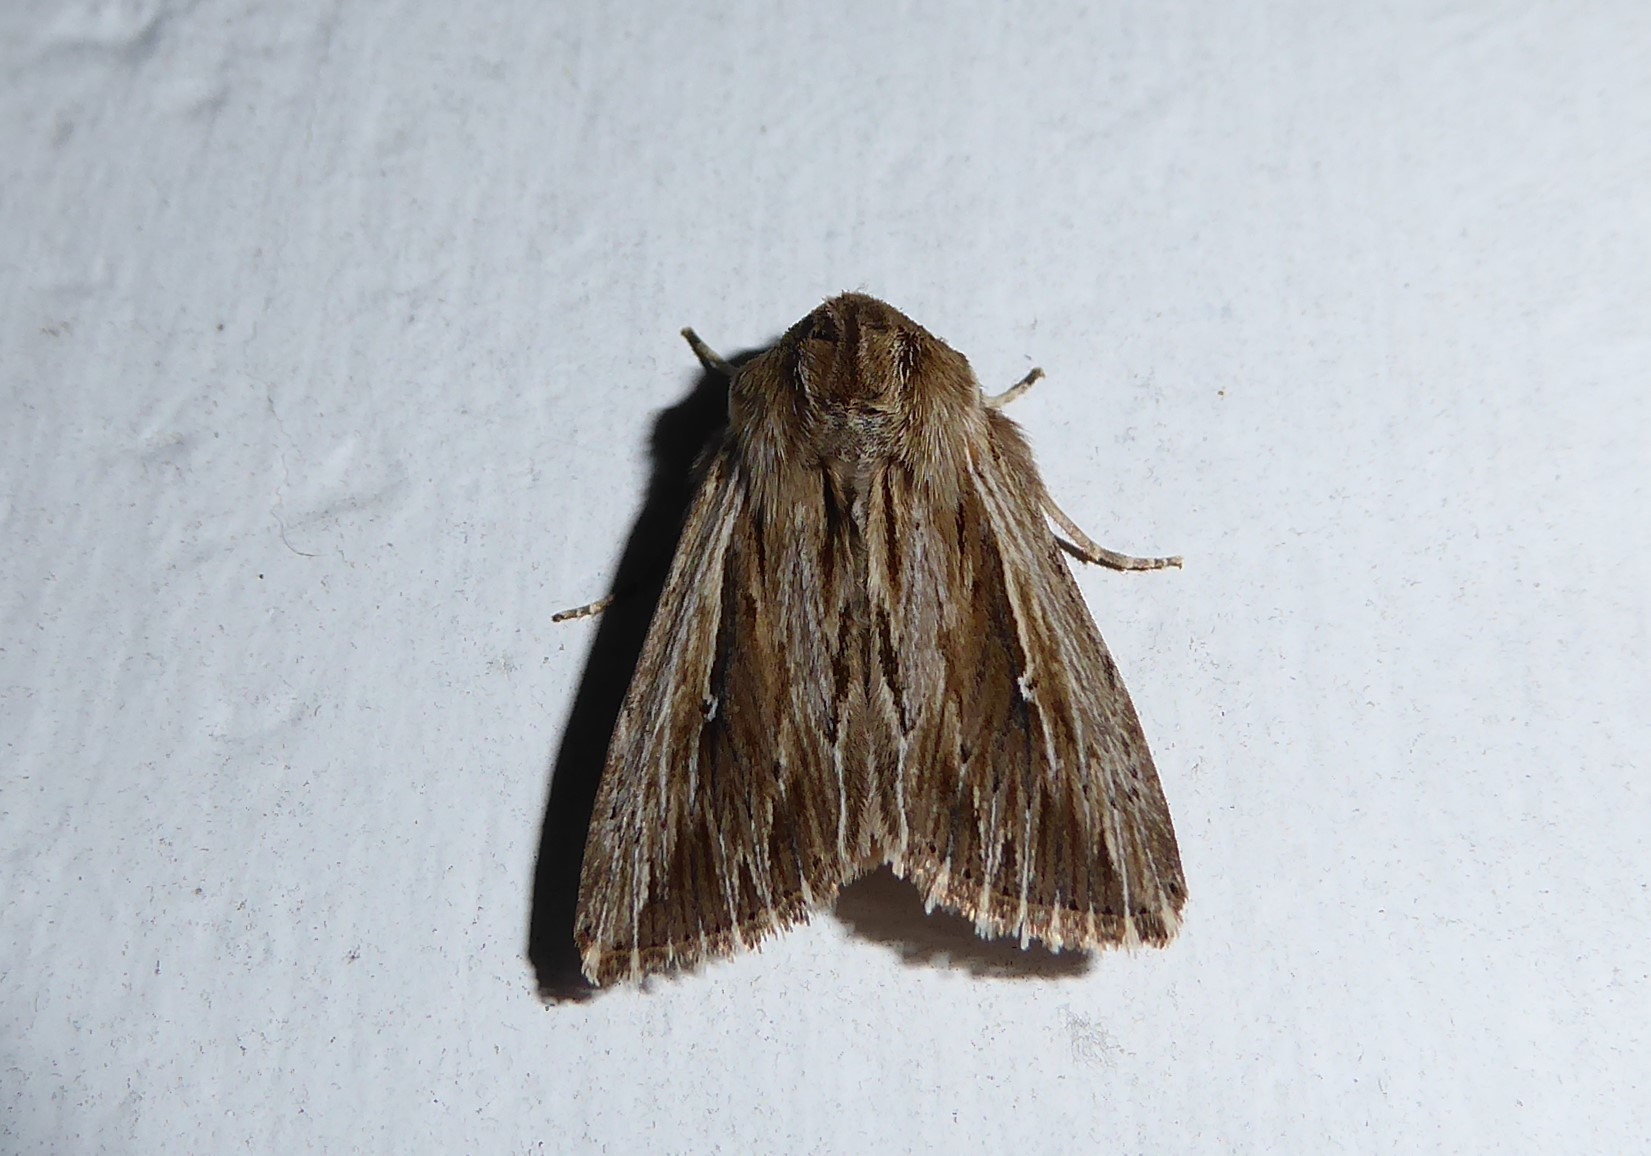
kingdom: Animalia
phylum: Arthropoda
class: Insecta
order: Lepidoptera
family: Noctuidae
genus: Persectania
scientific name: Persectania aversa
